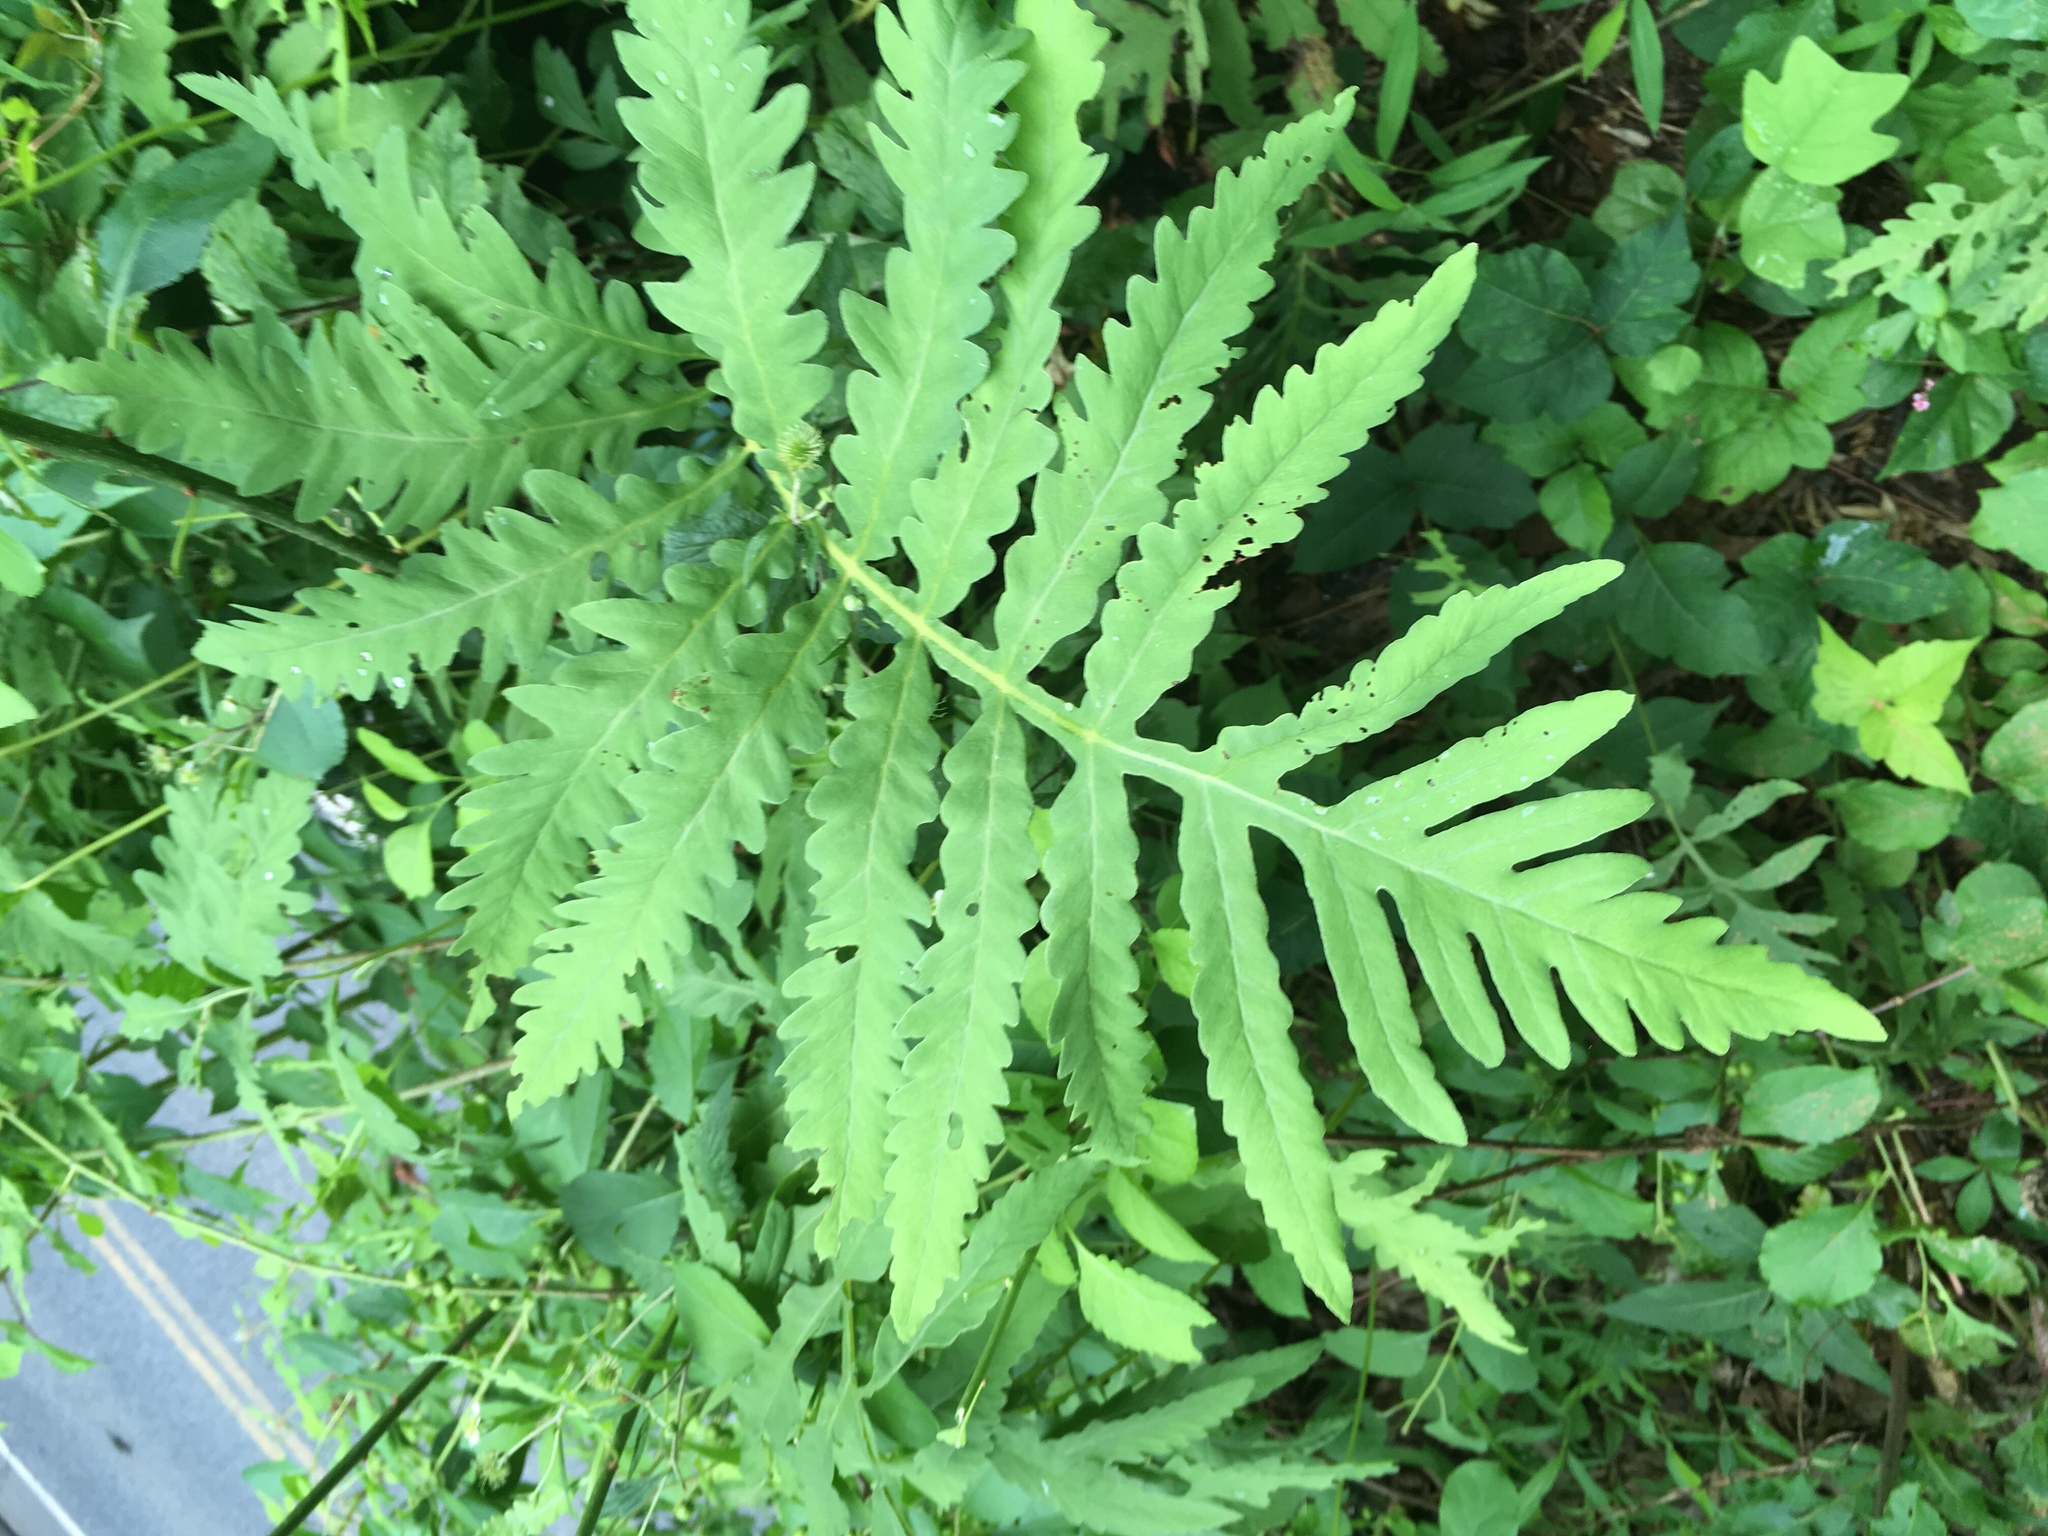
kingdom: Plantae
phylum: Tracheophyta
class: Polypodiopsida
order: Polypodiales
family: Onocleaceae
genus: Onoclea
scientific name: Onoclea sensibilis
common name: Sensitive fern
